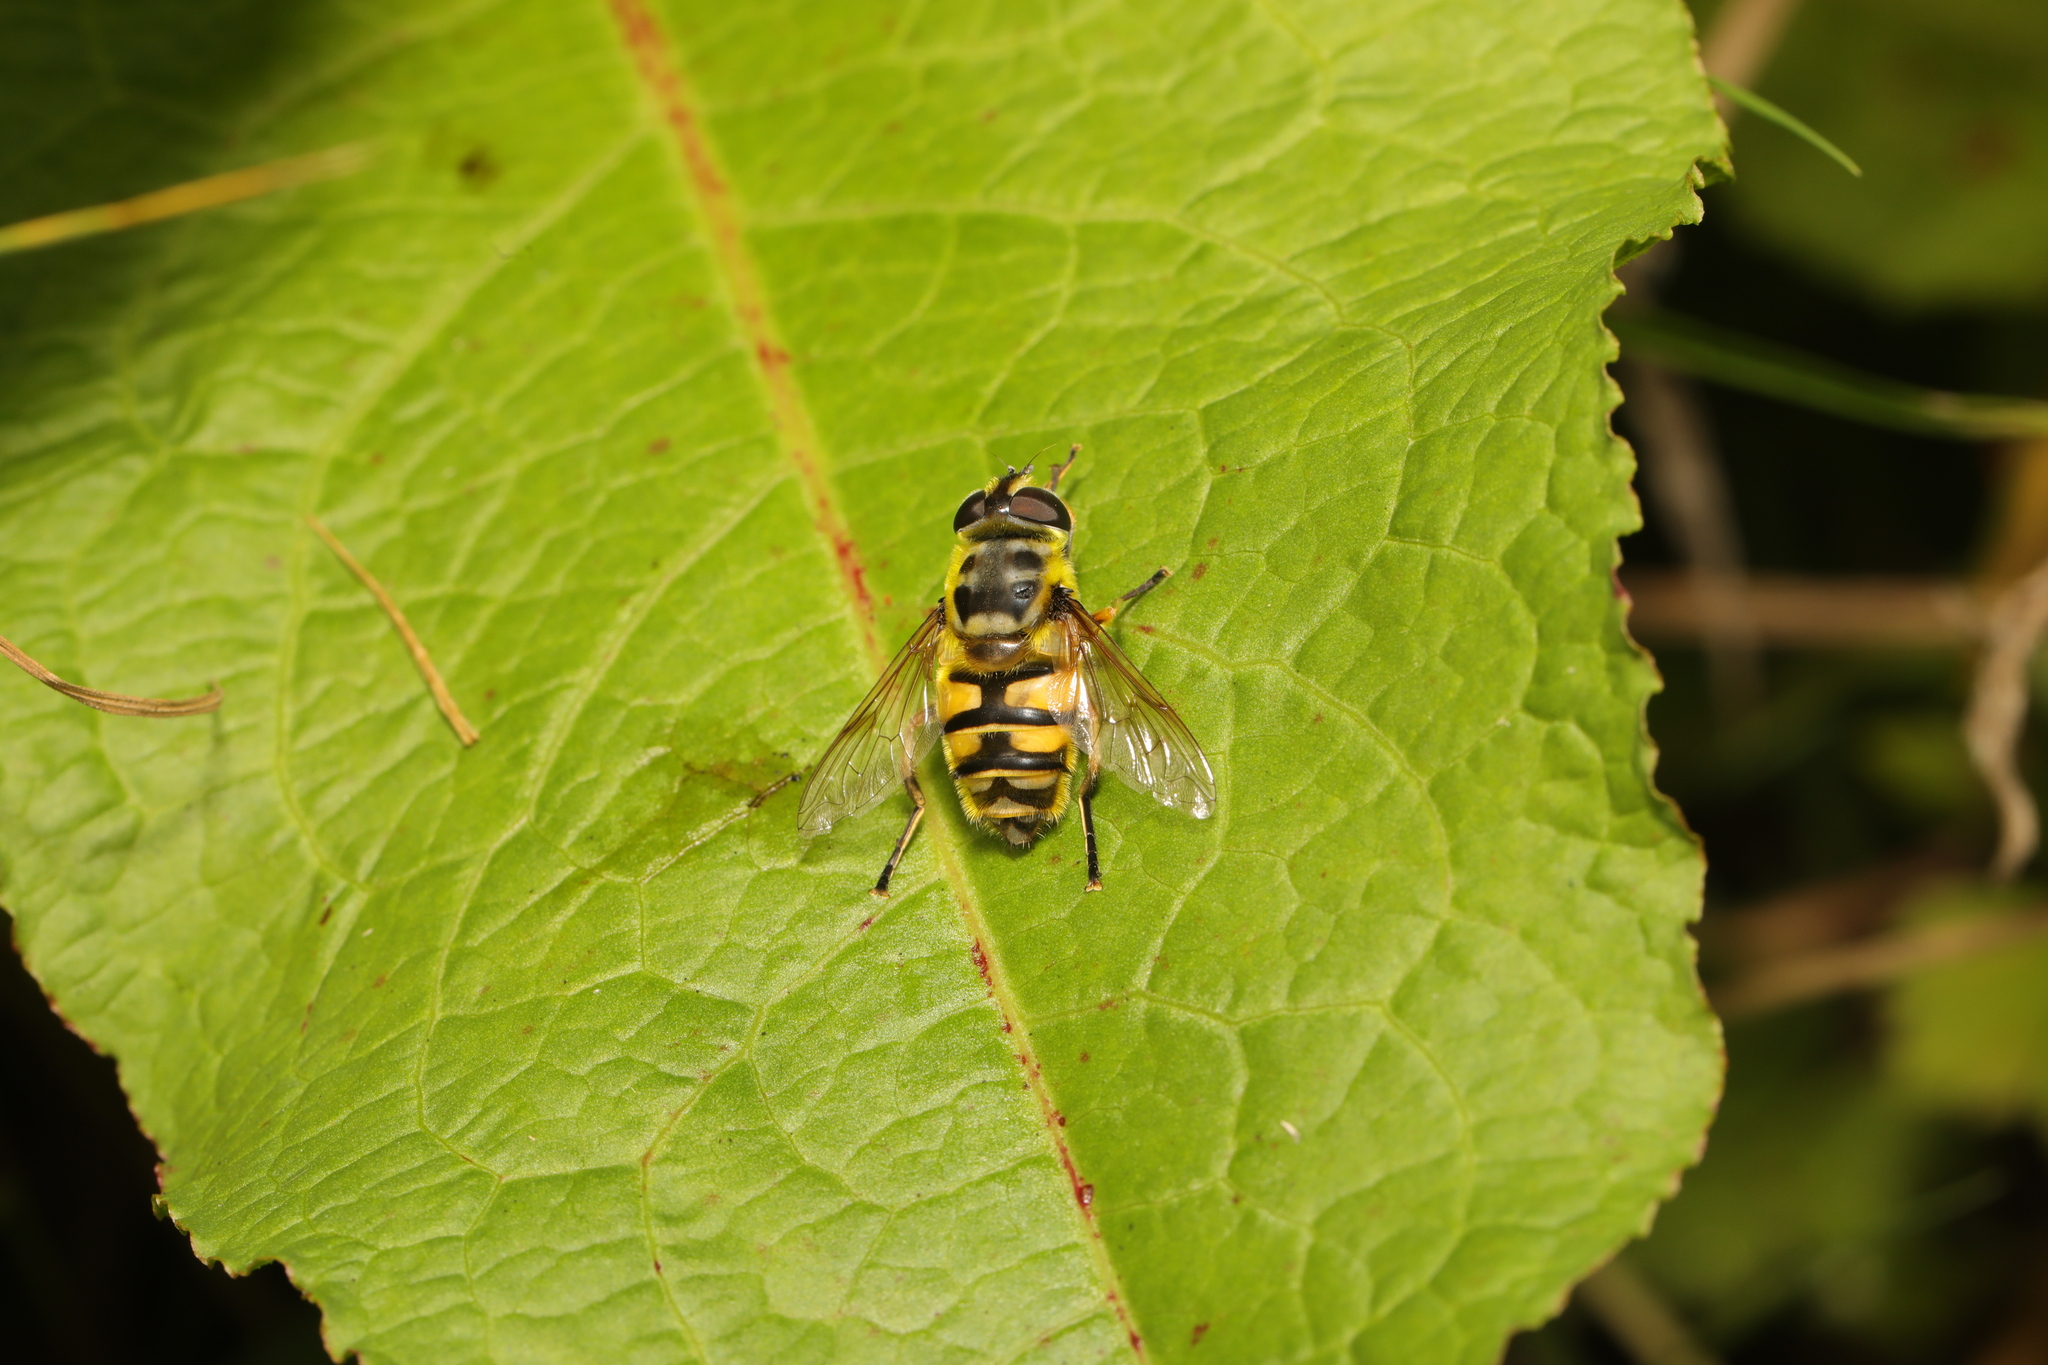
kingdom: Animalia
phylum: Arthropoda
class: Insecta
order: Diptera
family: Syrphidae
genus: Myathropa
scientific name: Myathropa florea
